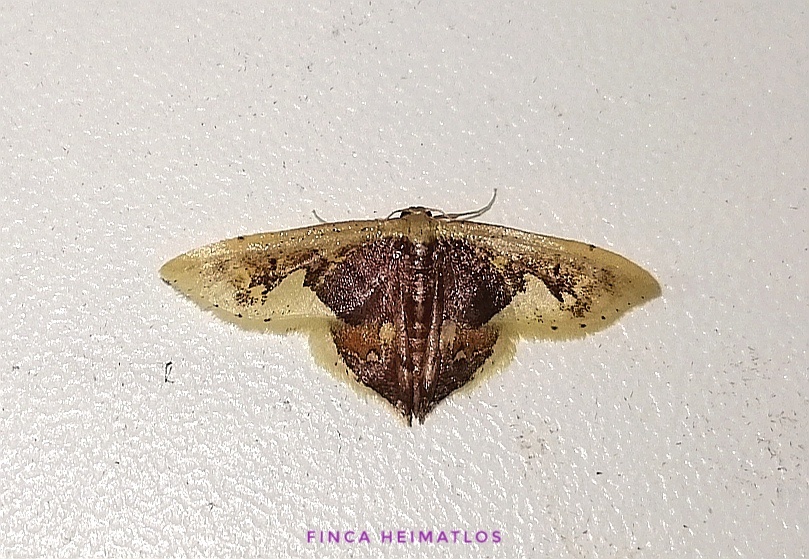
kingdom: Animalia
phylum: Arthropoda
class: Insecta
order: Lepidoptera
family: Geometridae
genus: Idaea
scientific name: Idaea flavicosta
